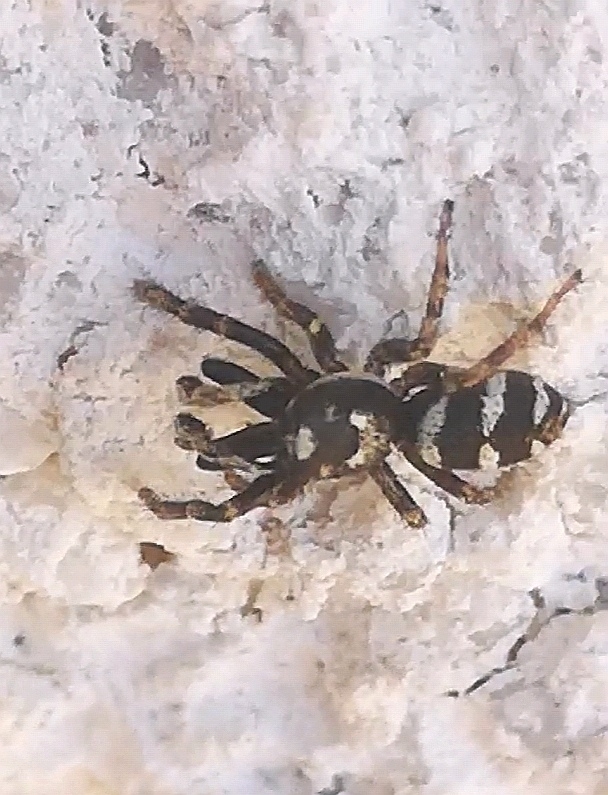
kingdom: Animalia
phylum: Arthropoda
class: Arachnida
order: Araneae
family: Salticidae
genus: Salticus
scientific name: Salticus scenicus
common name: Zebra jumper
